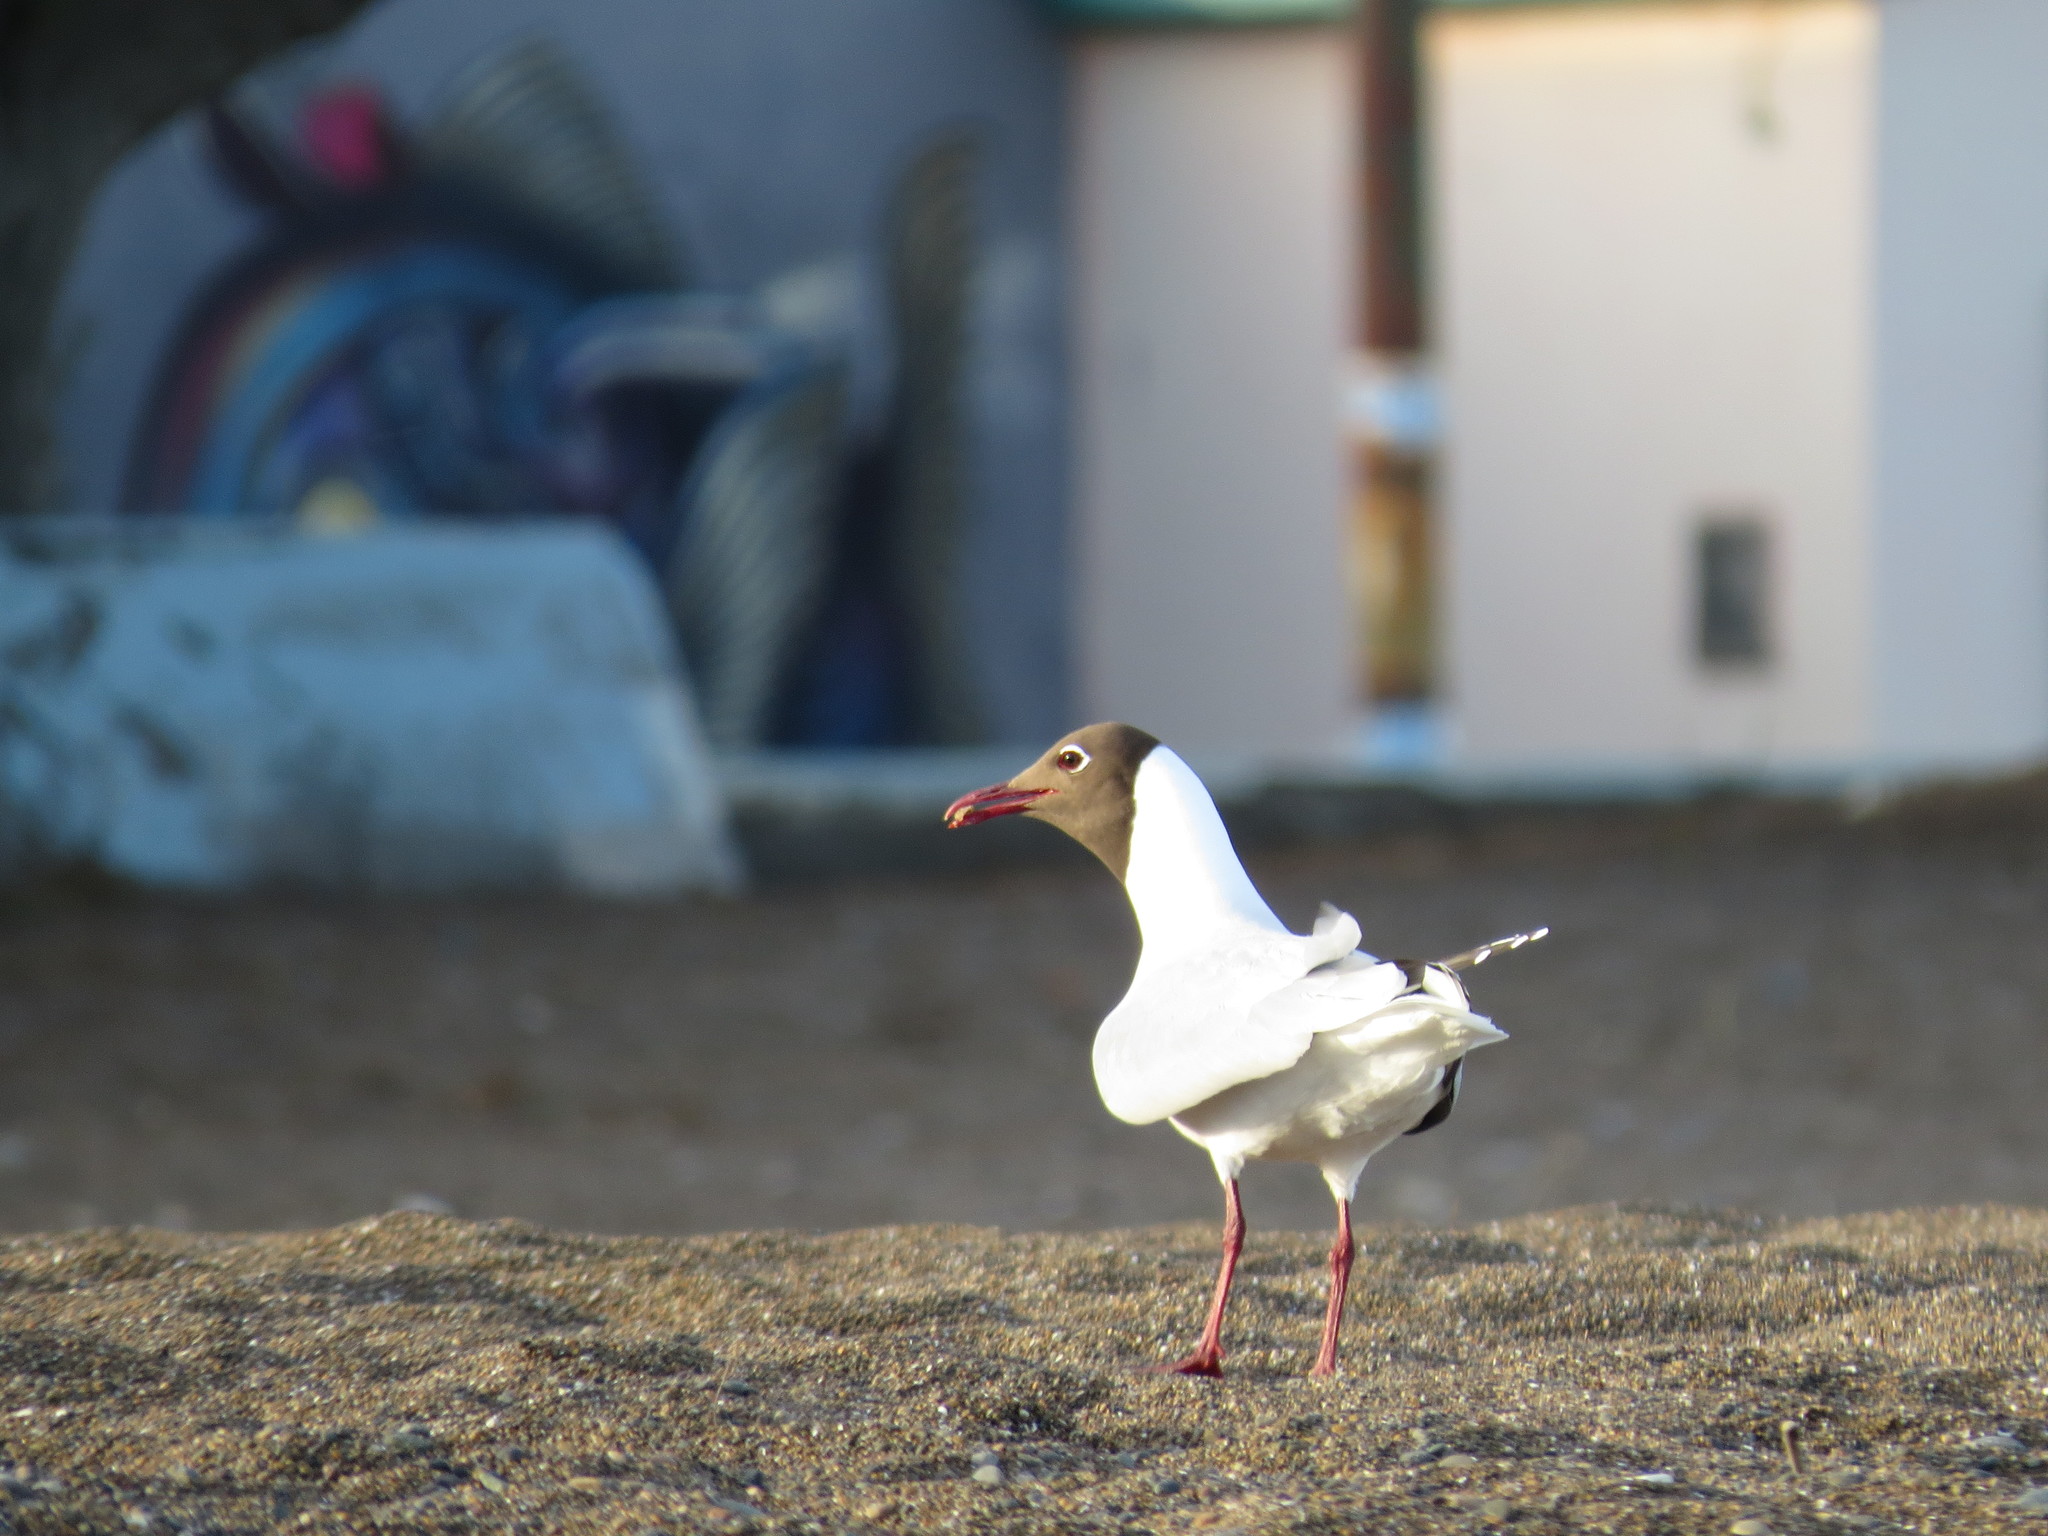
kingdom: Animalia
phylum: Chordata
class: Aves
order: Charadriiformes
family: Laridae
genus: Chroicocephalus
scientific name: Chroicocephalus maculipennis
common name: Brown-hooded gull
